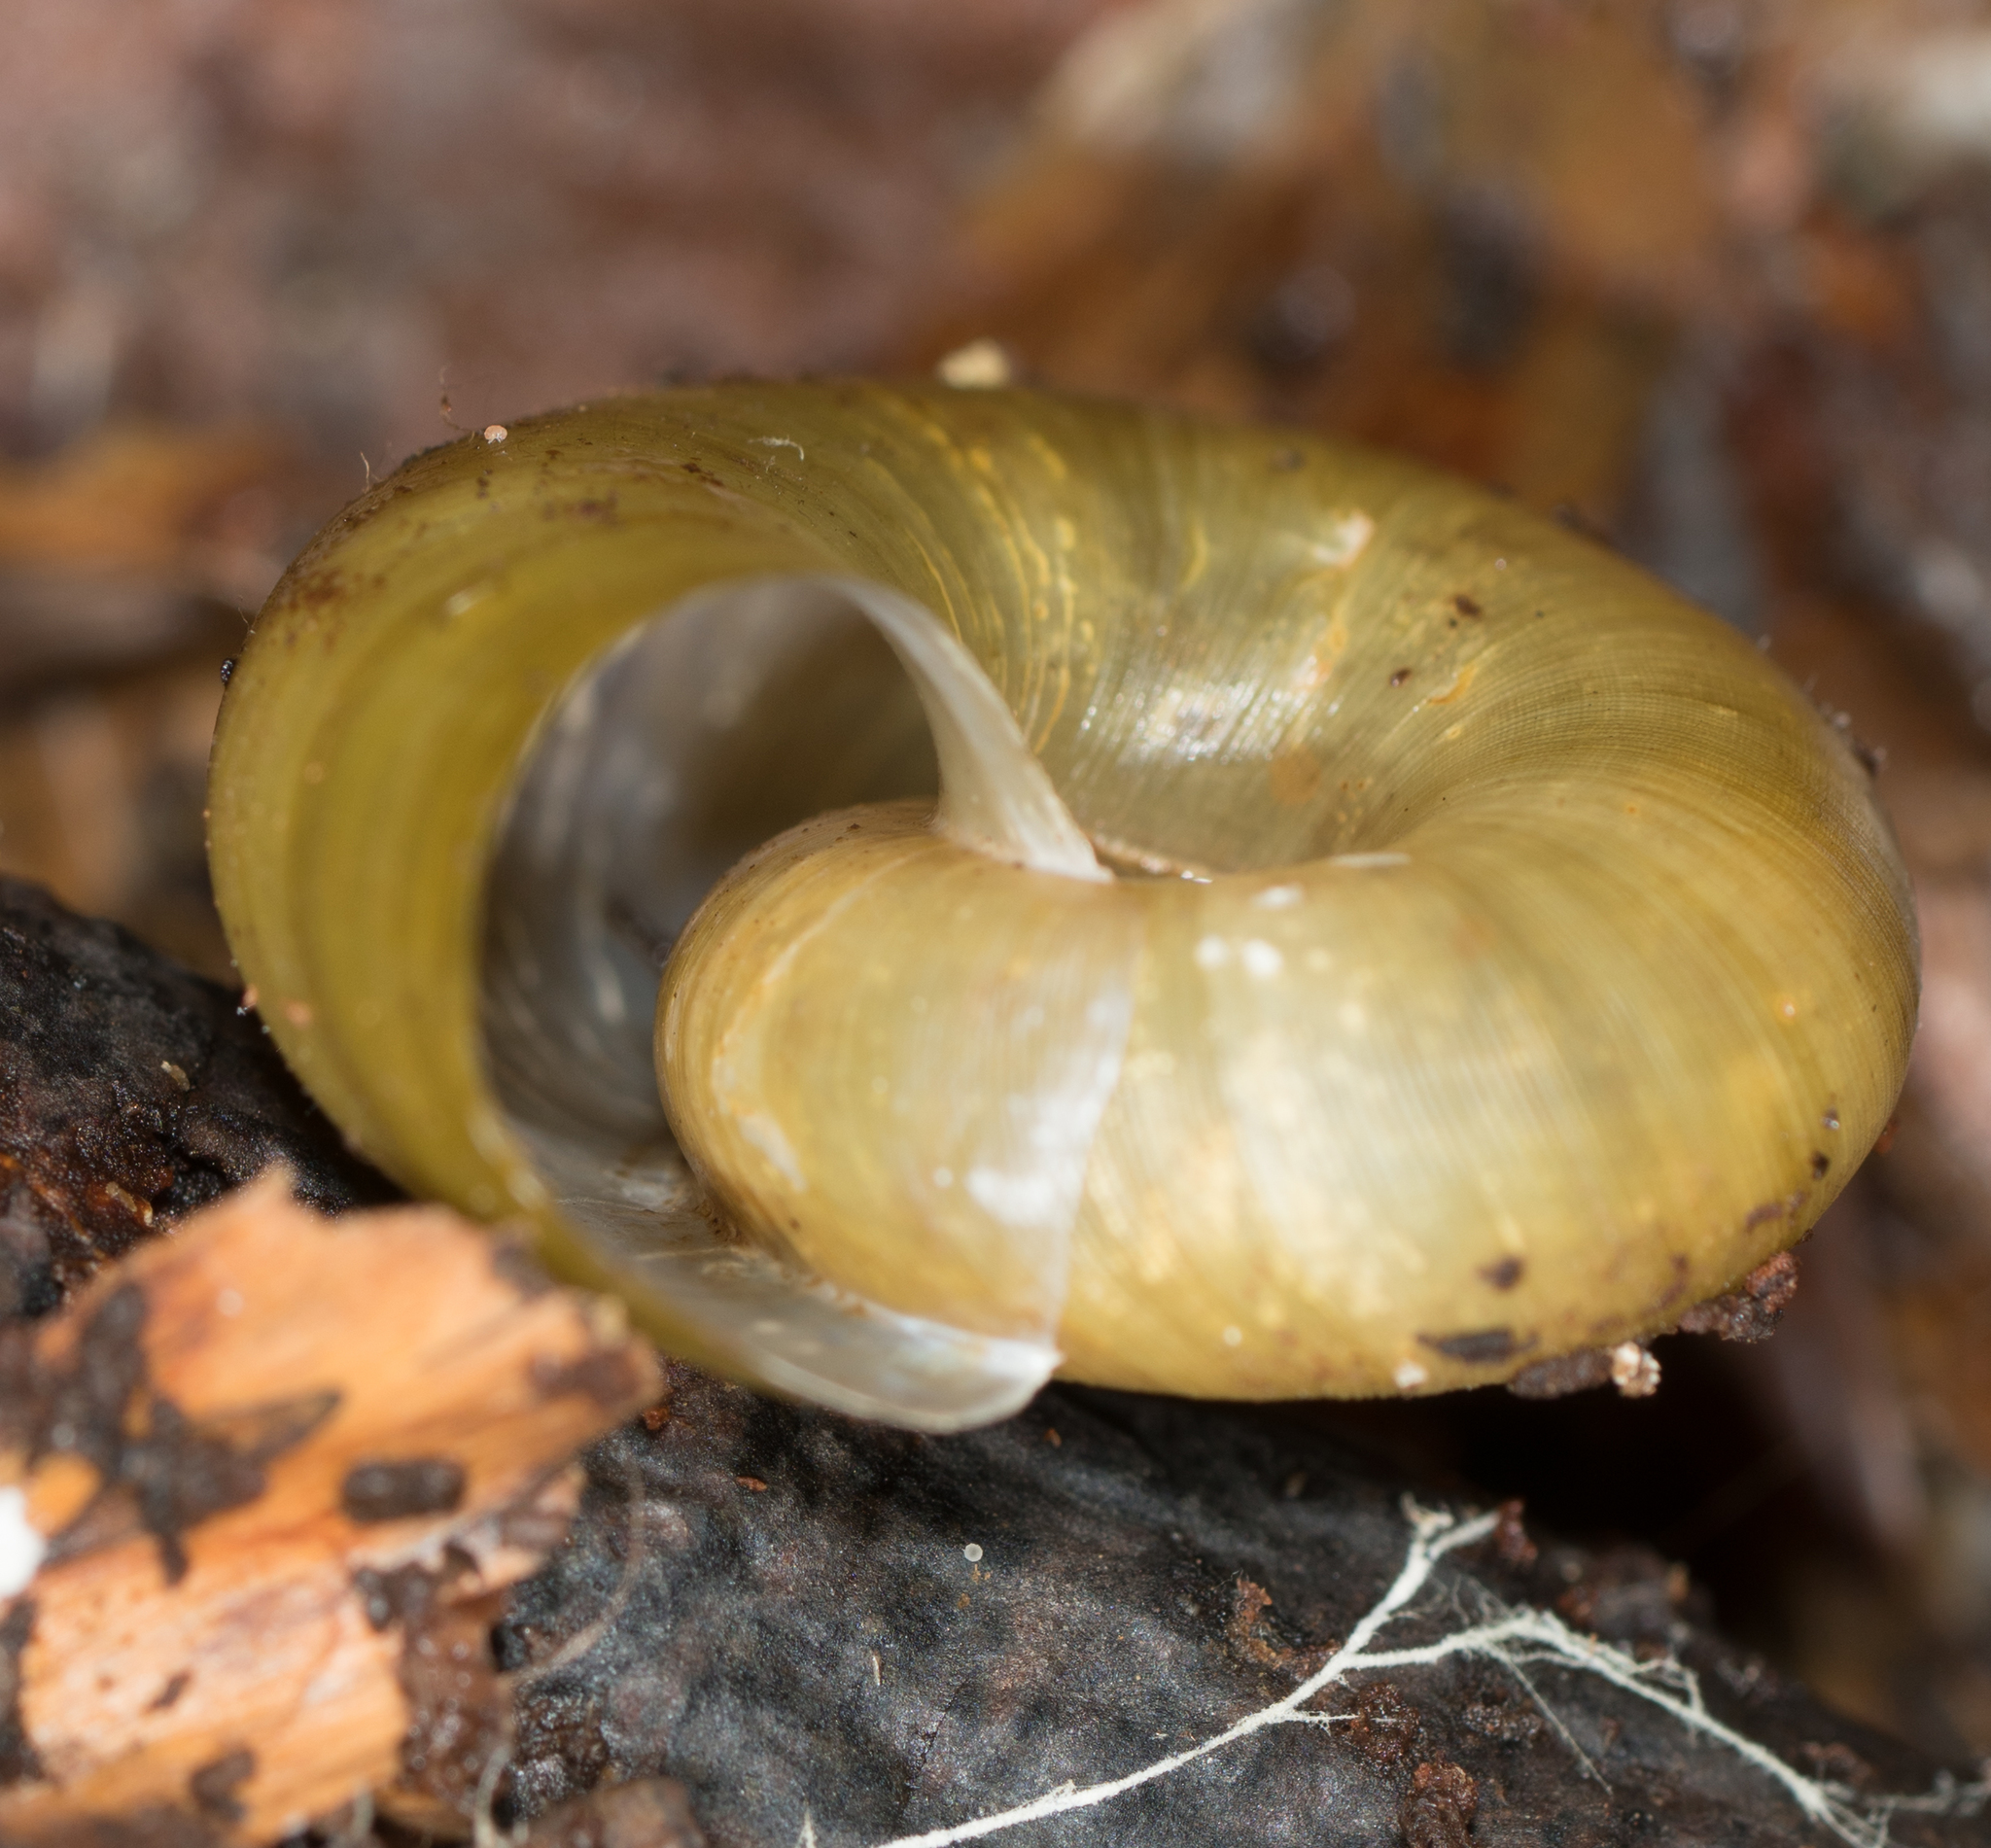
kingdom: Animalia
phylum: Mollusca
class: Gastropoda
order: Stylommatophora
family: Haplotrematidae
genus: Haplotrema
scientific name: Haplotrema vancouverense
